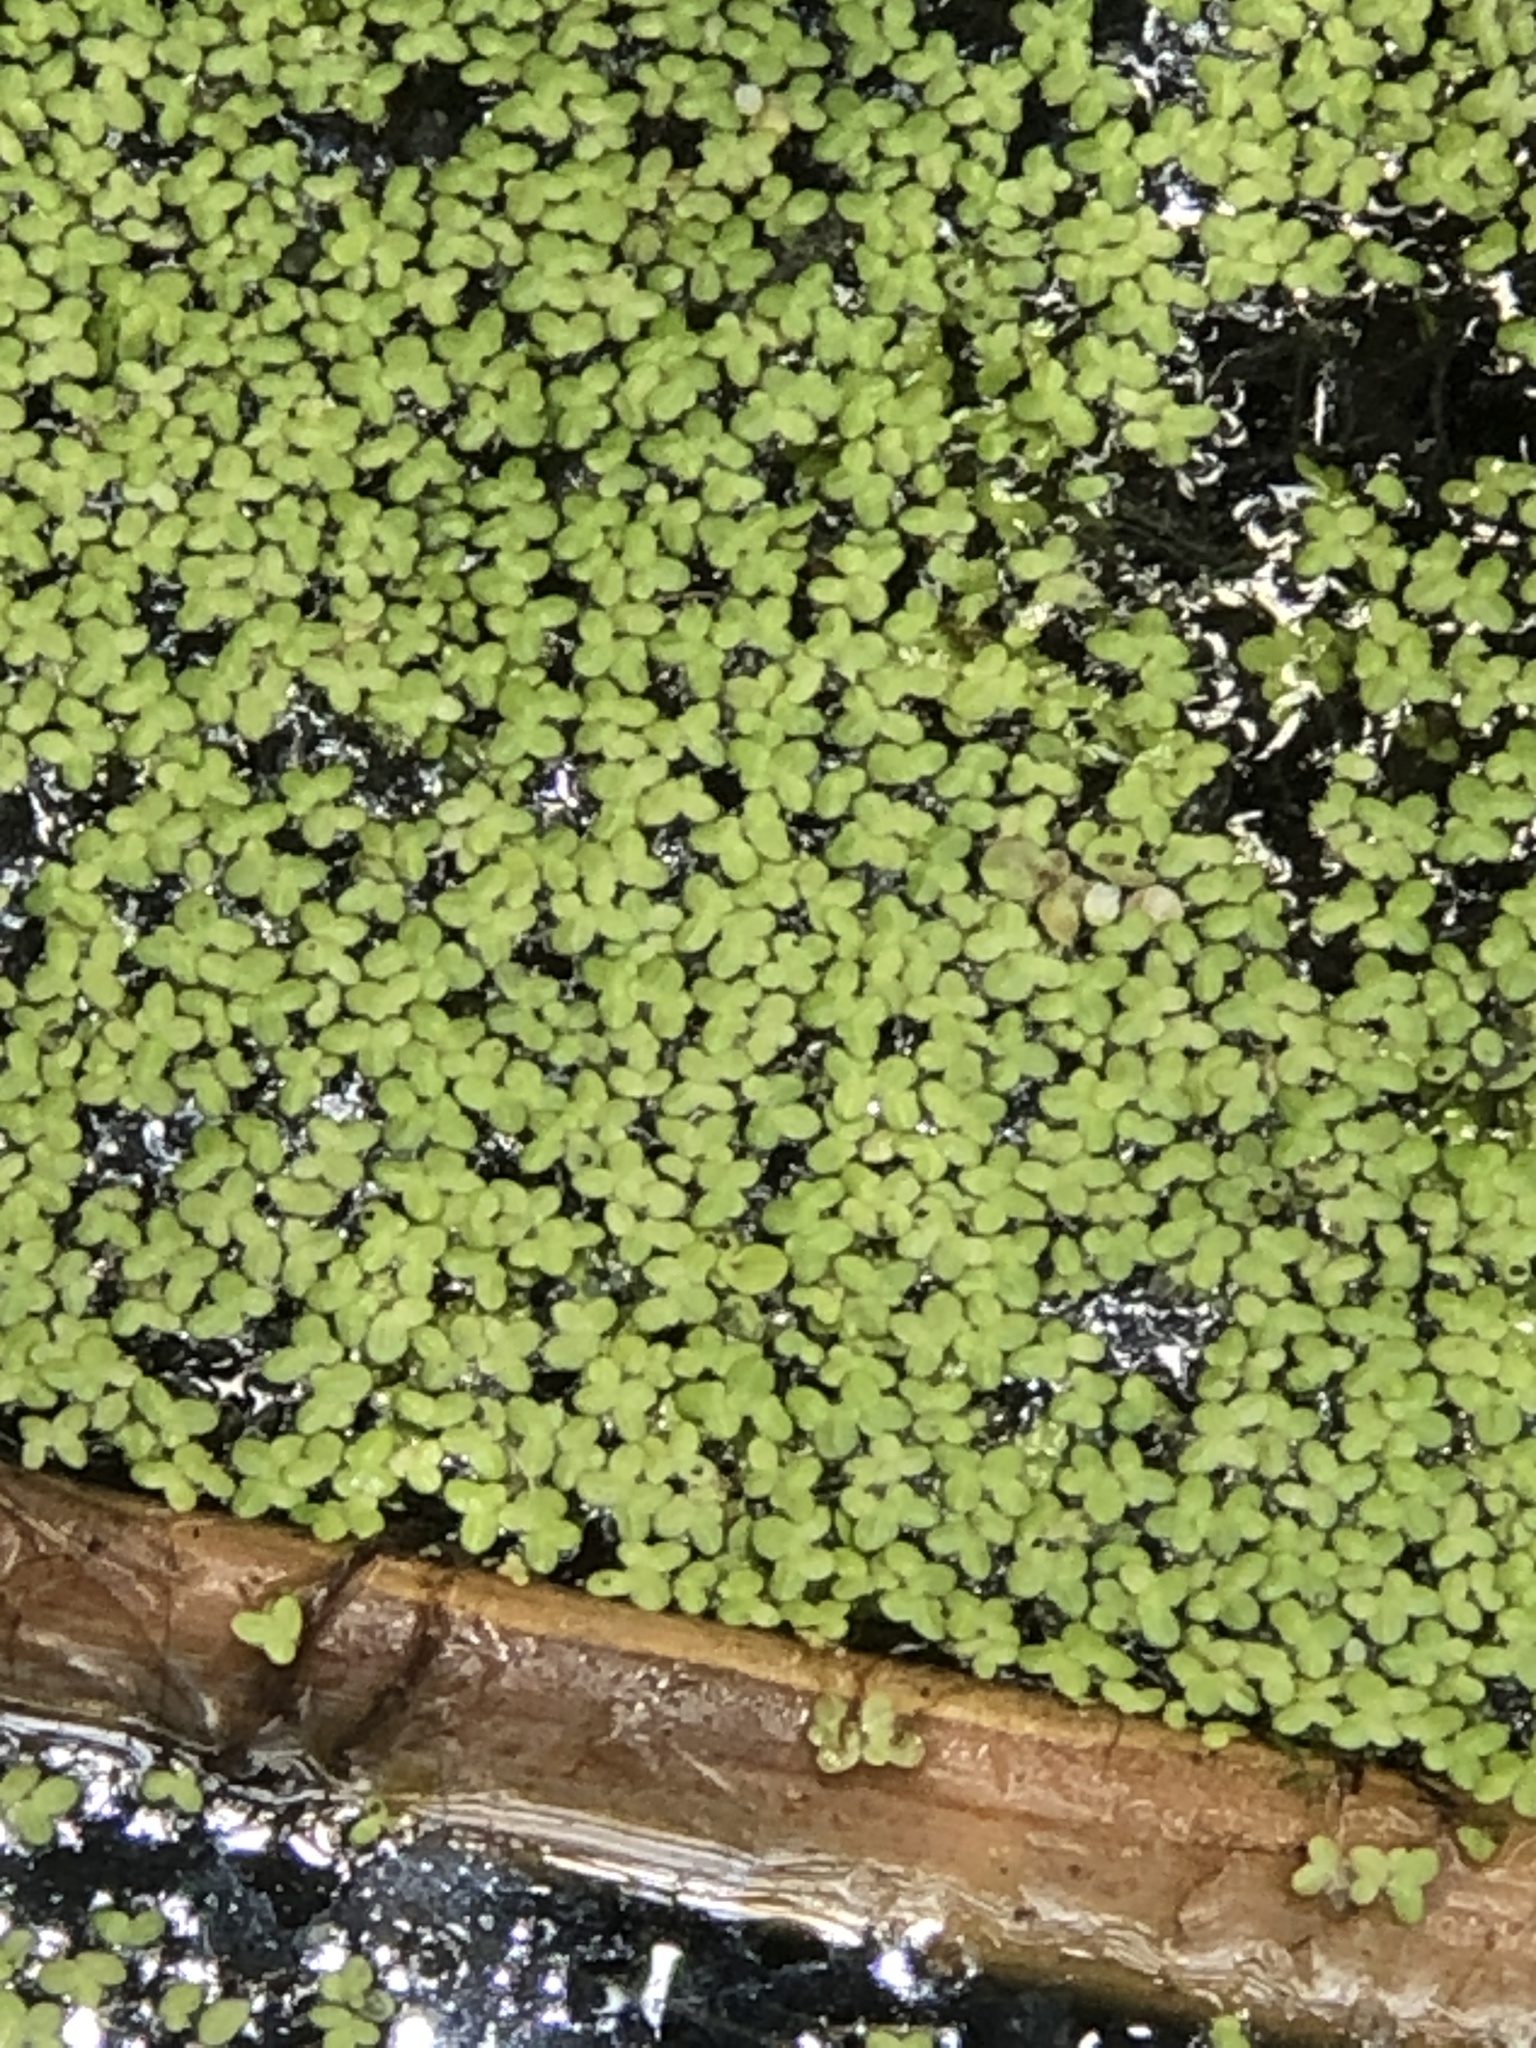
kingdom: Plantae
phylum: Tracheophyta
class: Liliopsida
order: Alismatales
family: Araceae
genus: Lemna
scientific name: Lemna minor
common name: Common duckweed
